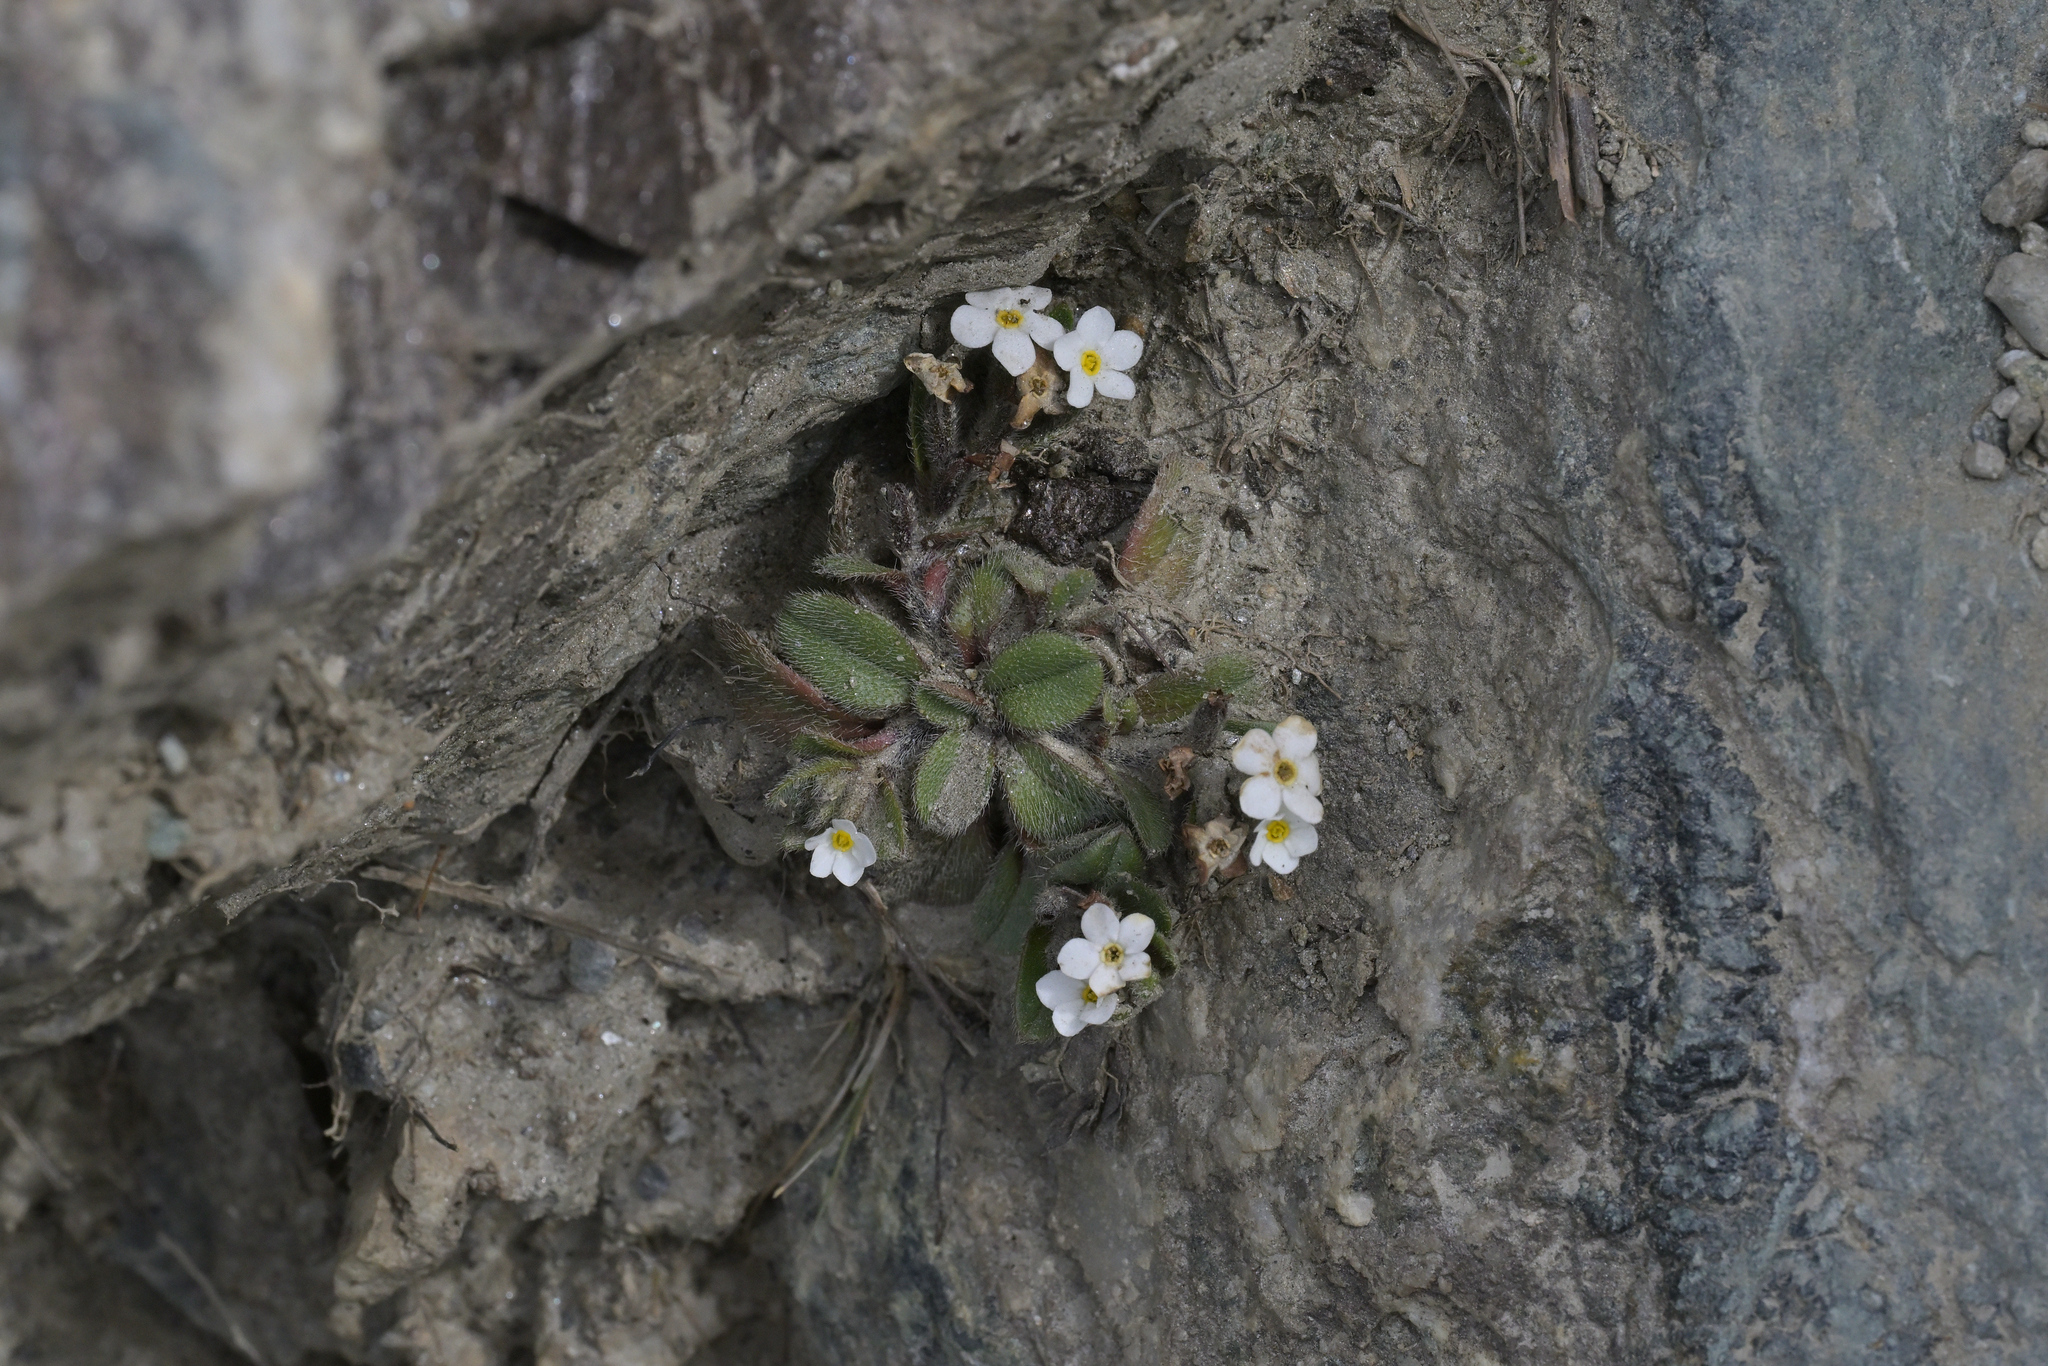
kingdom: Plantae
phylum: Tracheophyta
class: Magnoliopsida
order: Boraginales
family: Boraginaceae
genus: Myosotis
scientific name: Myosotis lyallii
